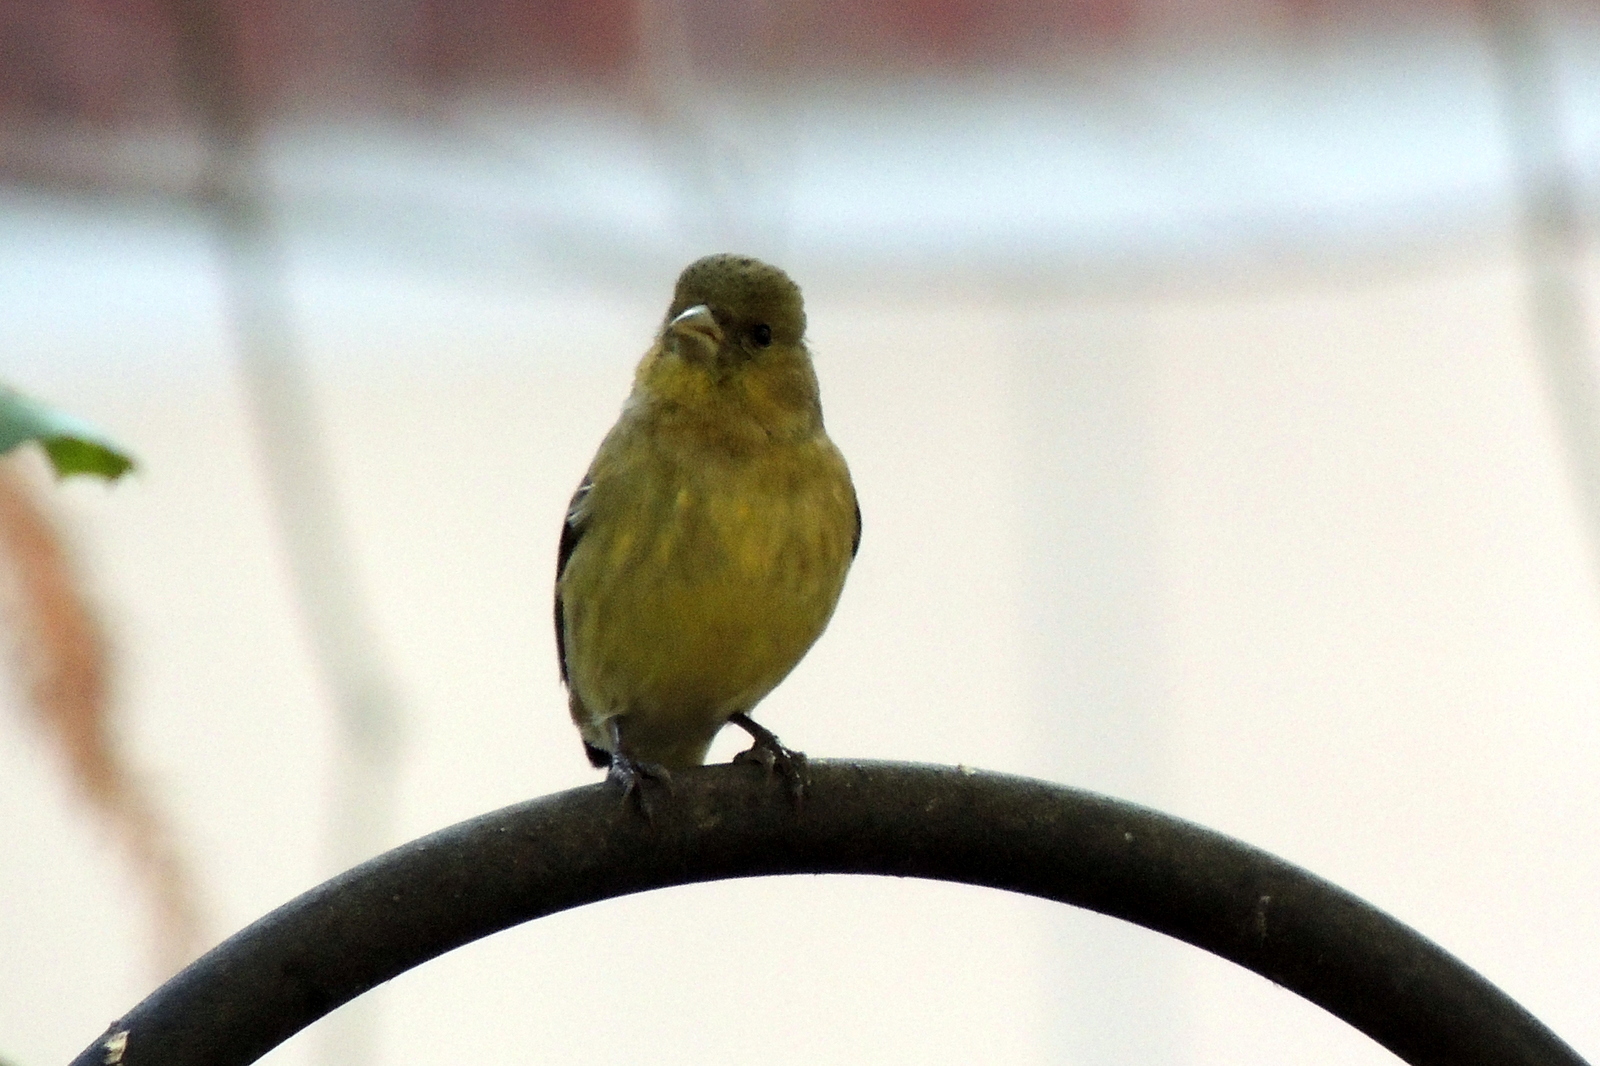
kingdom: Animalia
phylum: Chordata
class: Aves
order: Passeriformes
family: Fringillidae
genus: Spinus
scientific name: Spinus psaltria
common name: Lesser goldfinch
